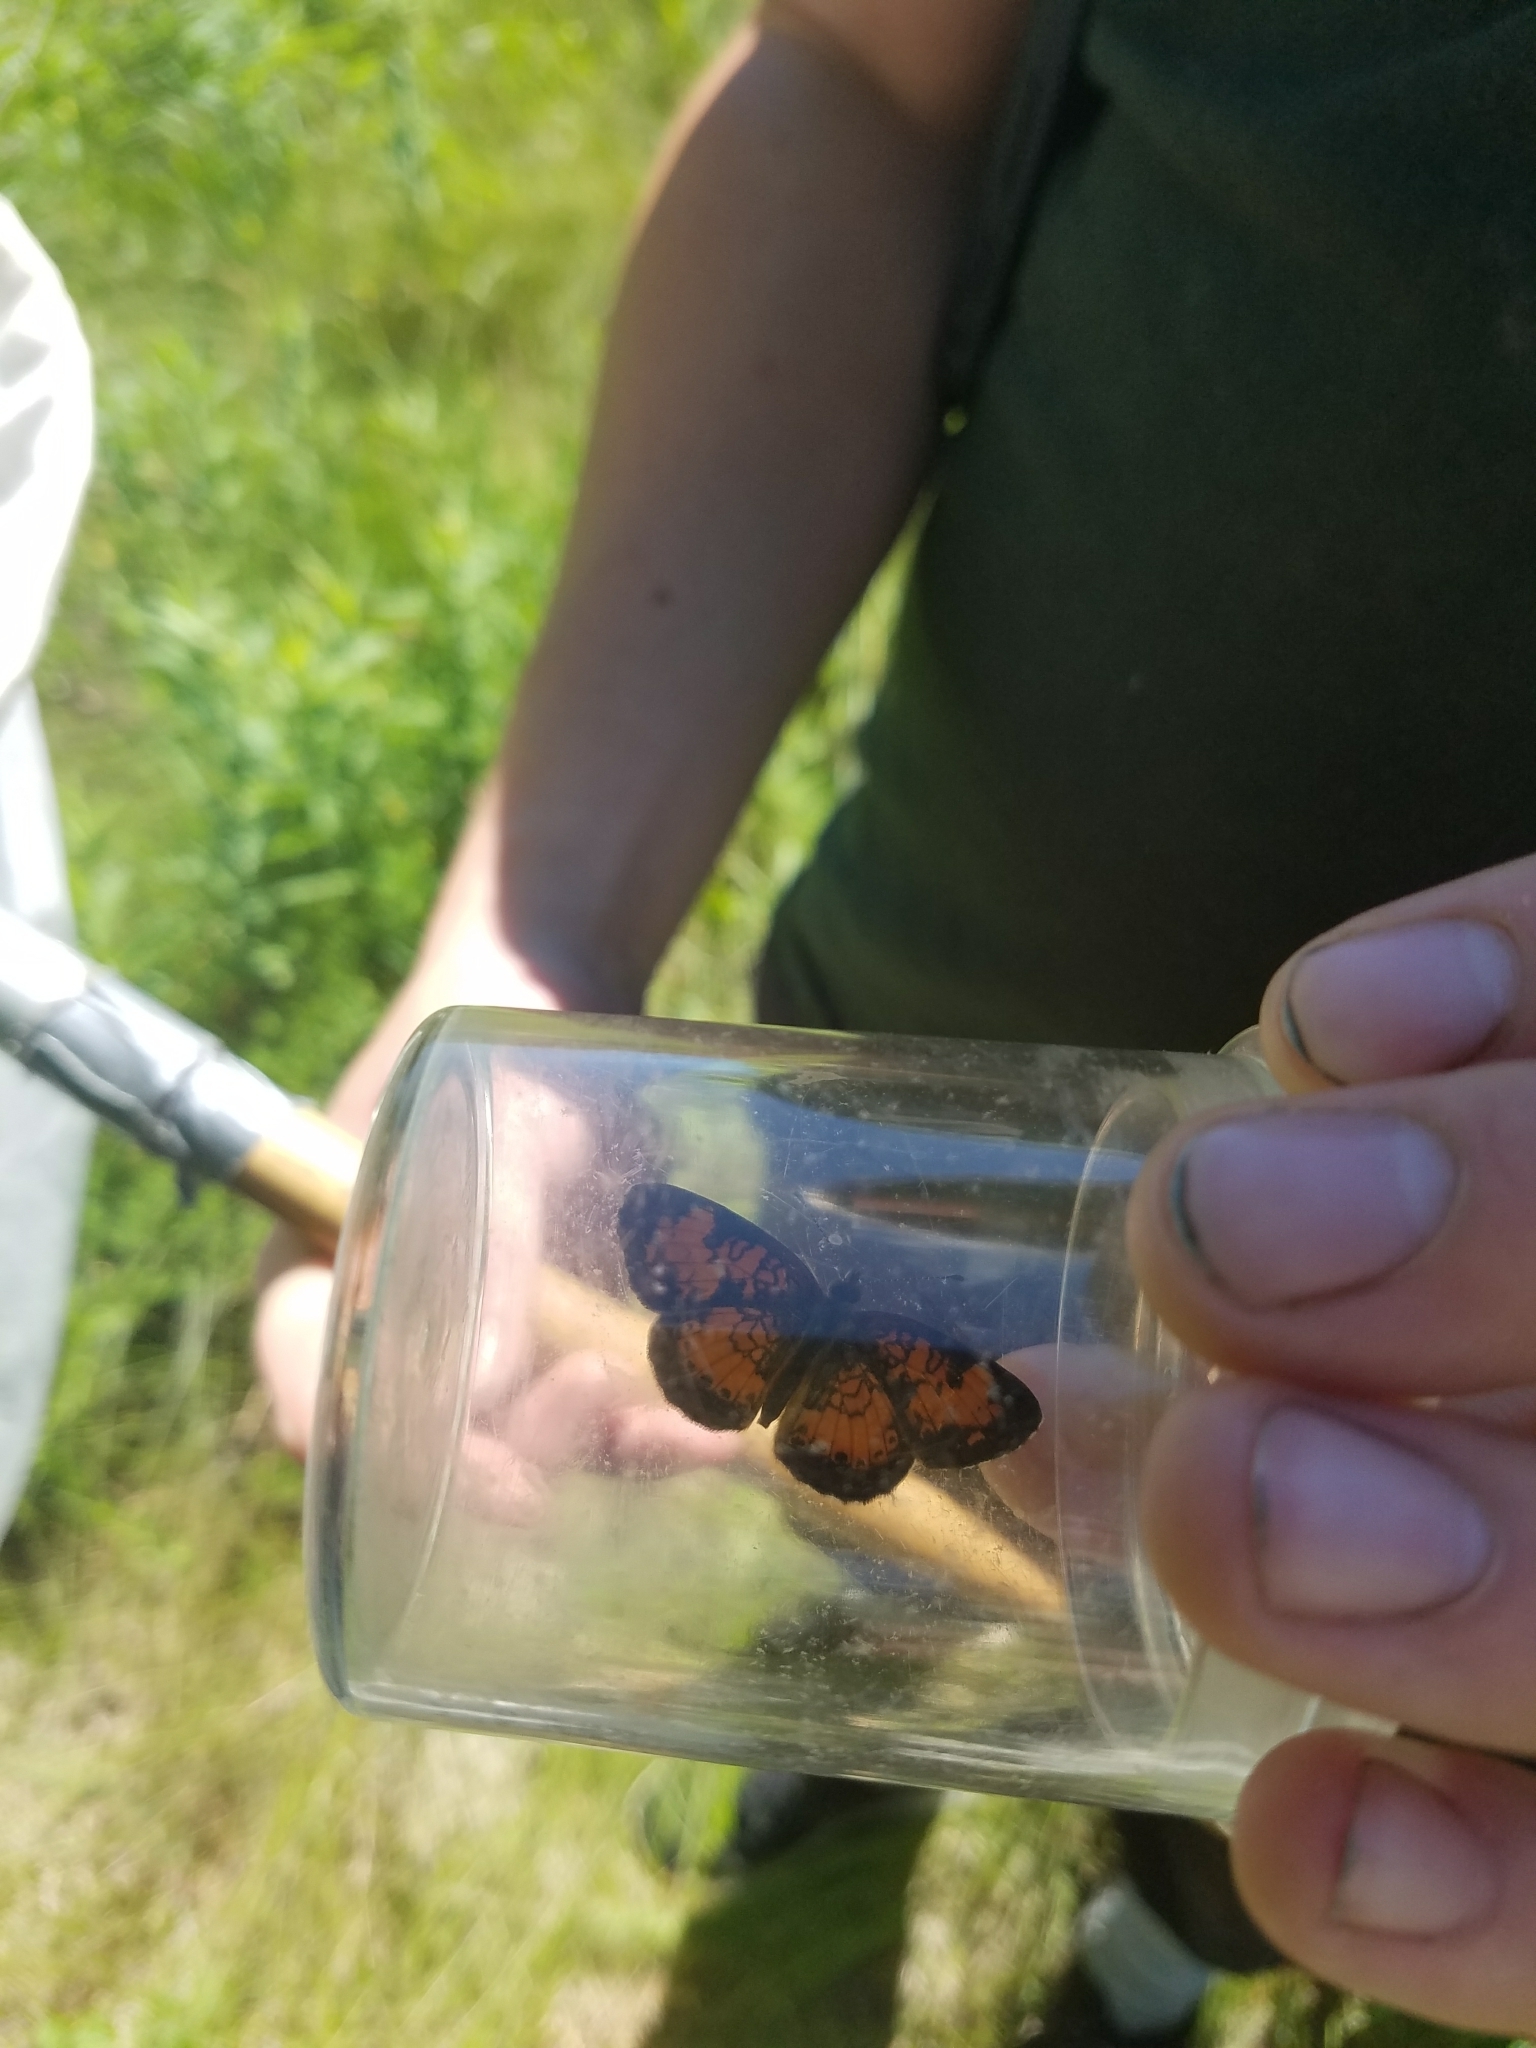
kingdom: Animalia
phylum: Arthropoda
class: Insecta
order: Lepidoptera
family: Nymphalidae
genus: Phyciodes
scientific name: Phyciodes tharos
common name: Pearl crescent
